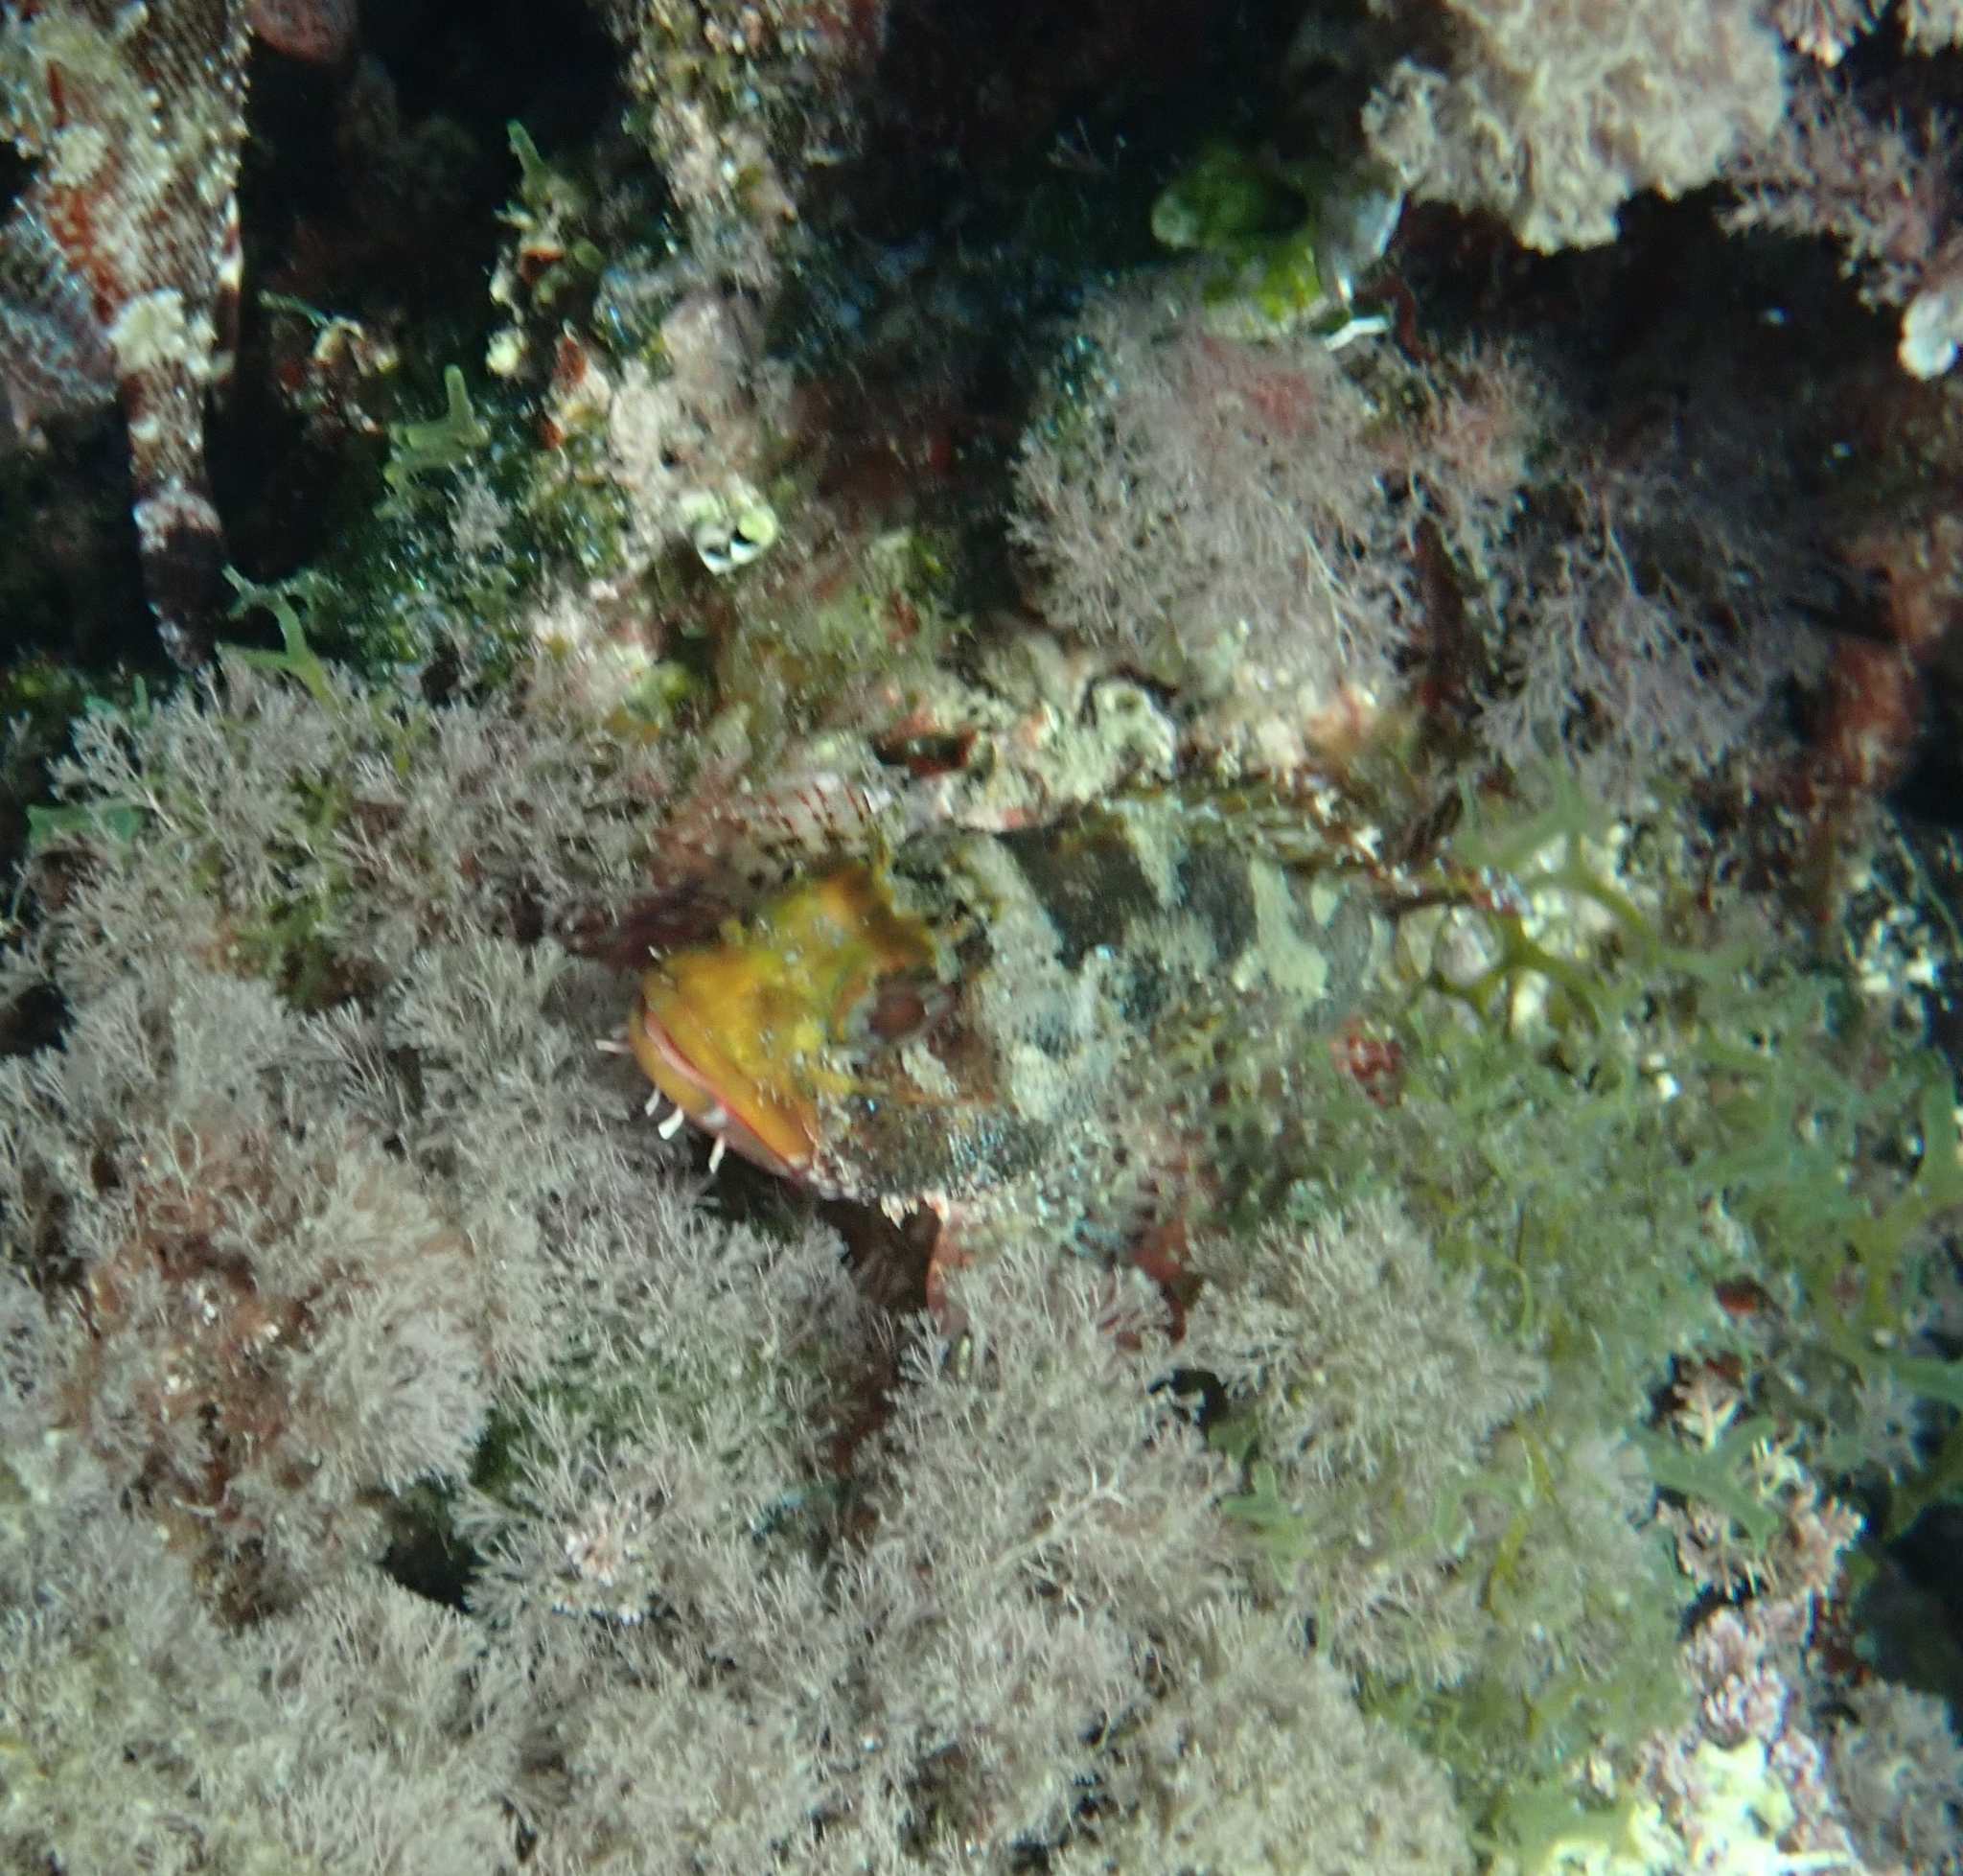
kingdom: Animalia
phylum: Chordata
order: Scorpaeniformes
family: Scorpaenidae
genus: Scorpaena
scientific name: Scorpaena maderensis
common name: Madeira rockfish
